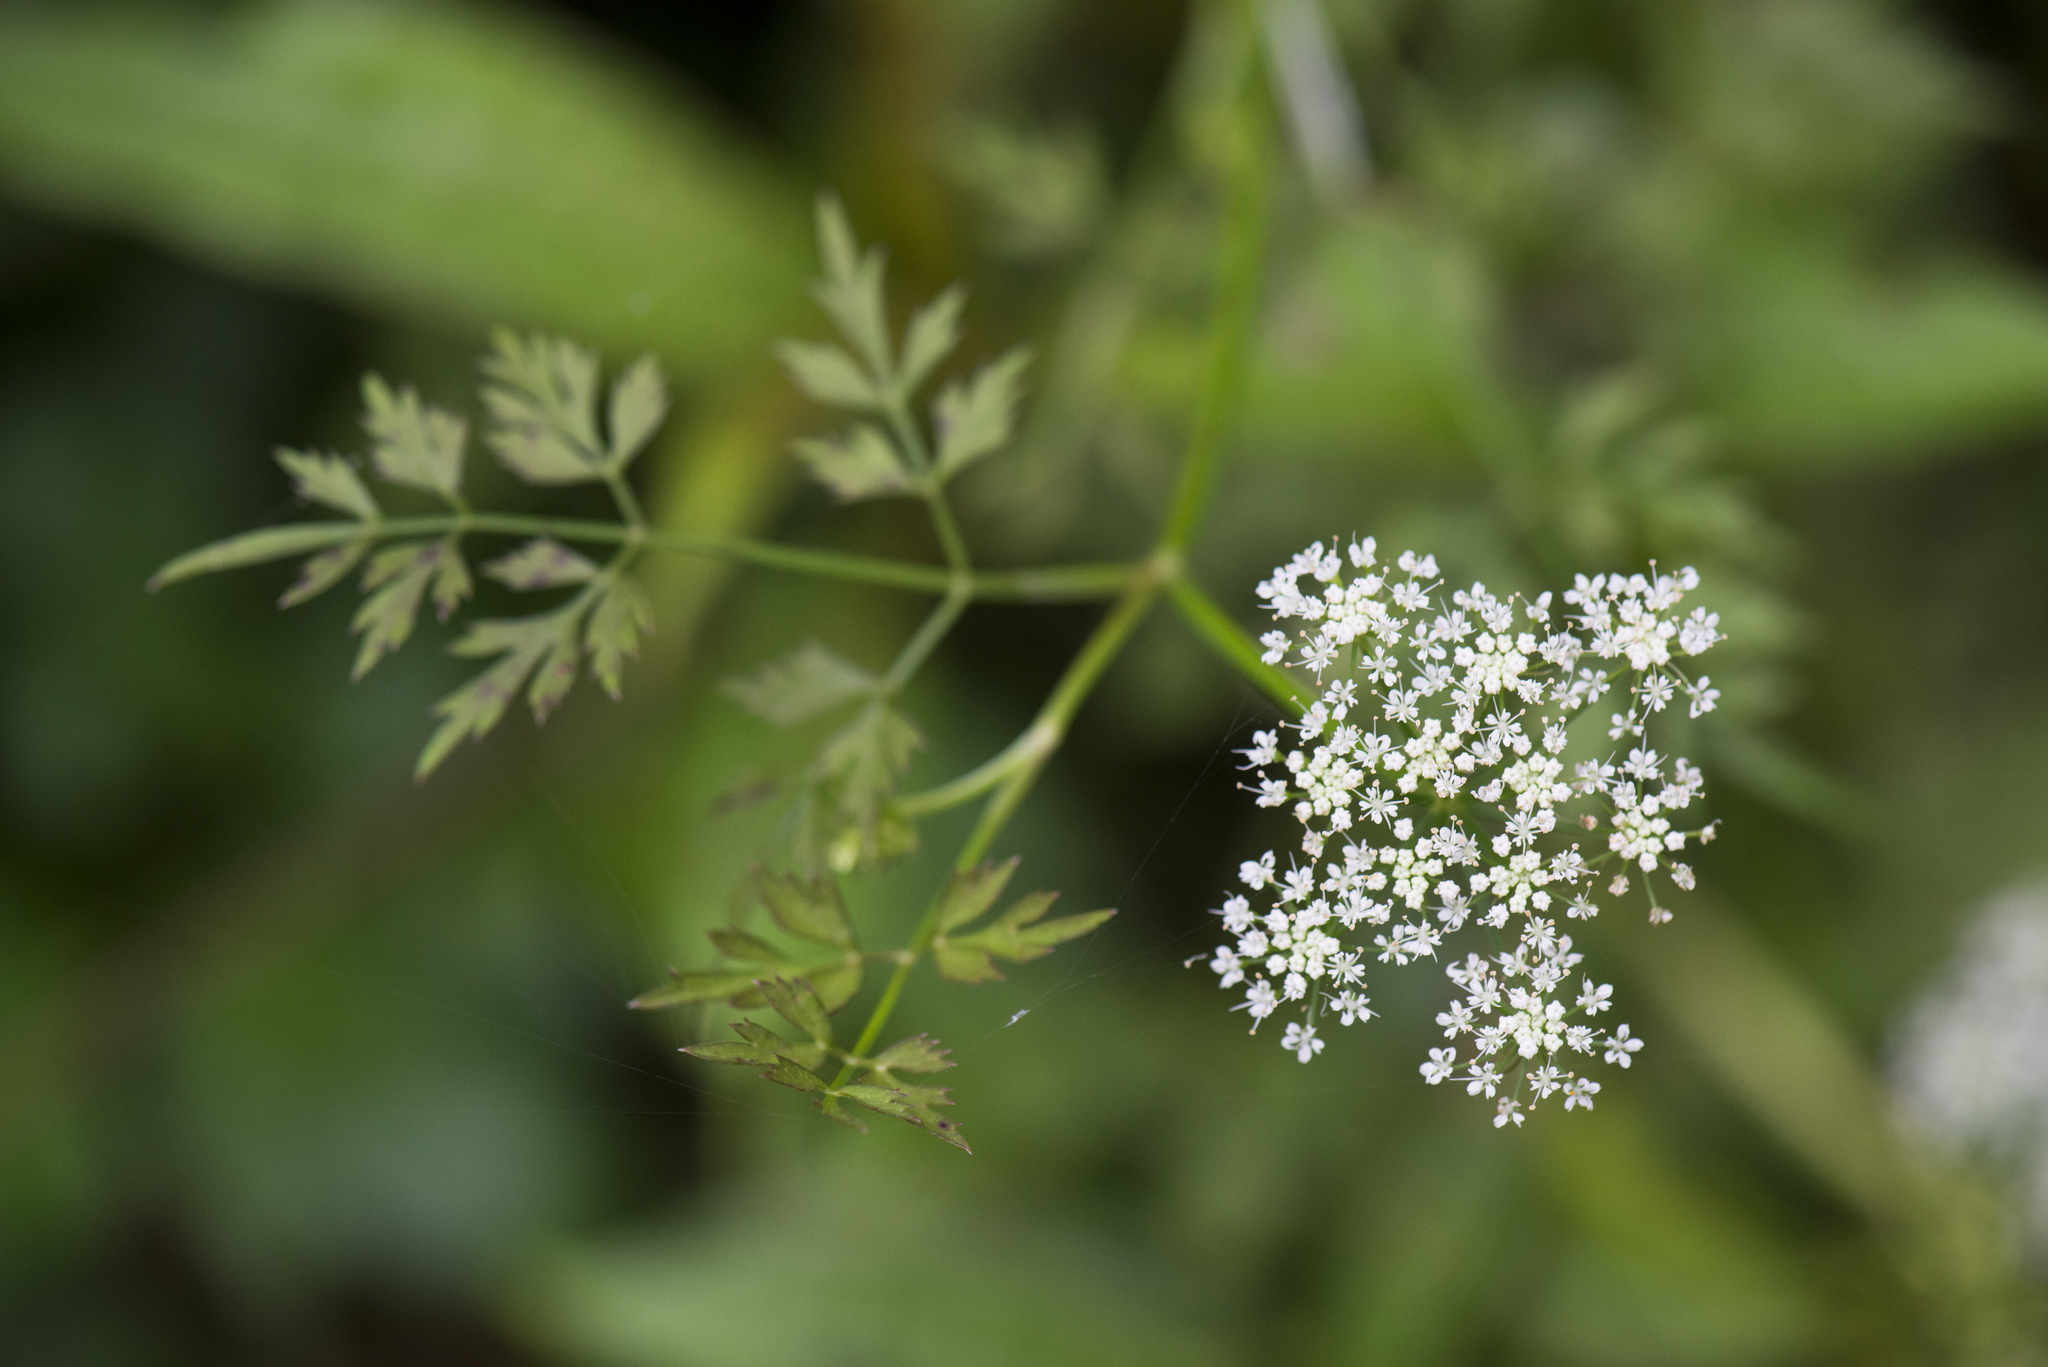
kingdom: Plantae
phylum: Tracheophyta
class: Magnoliopsida
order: Apiales
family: Apiaceae
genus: Oenanthe
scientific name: Oenanthe javanica
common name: Java water-dropwort
